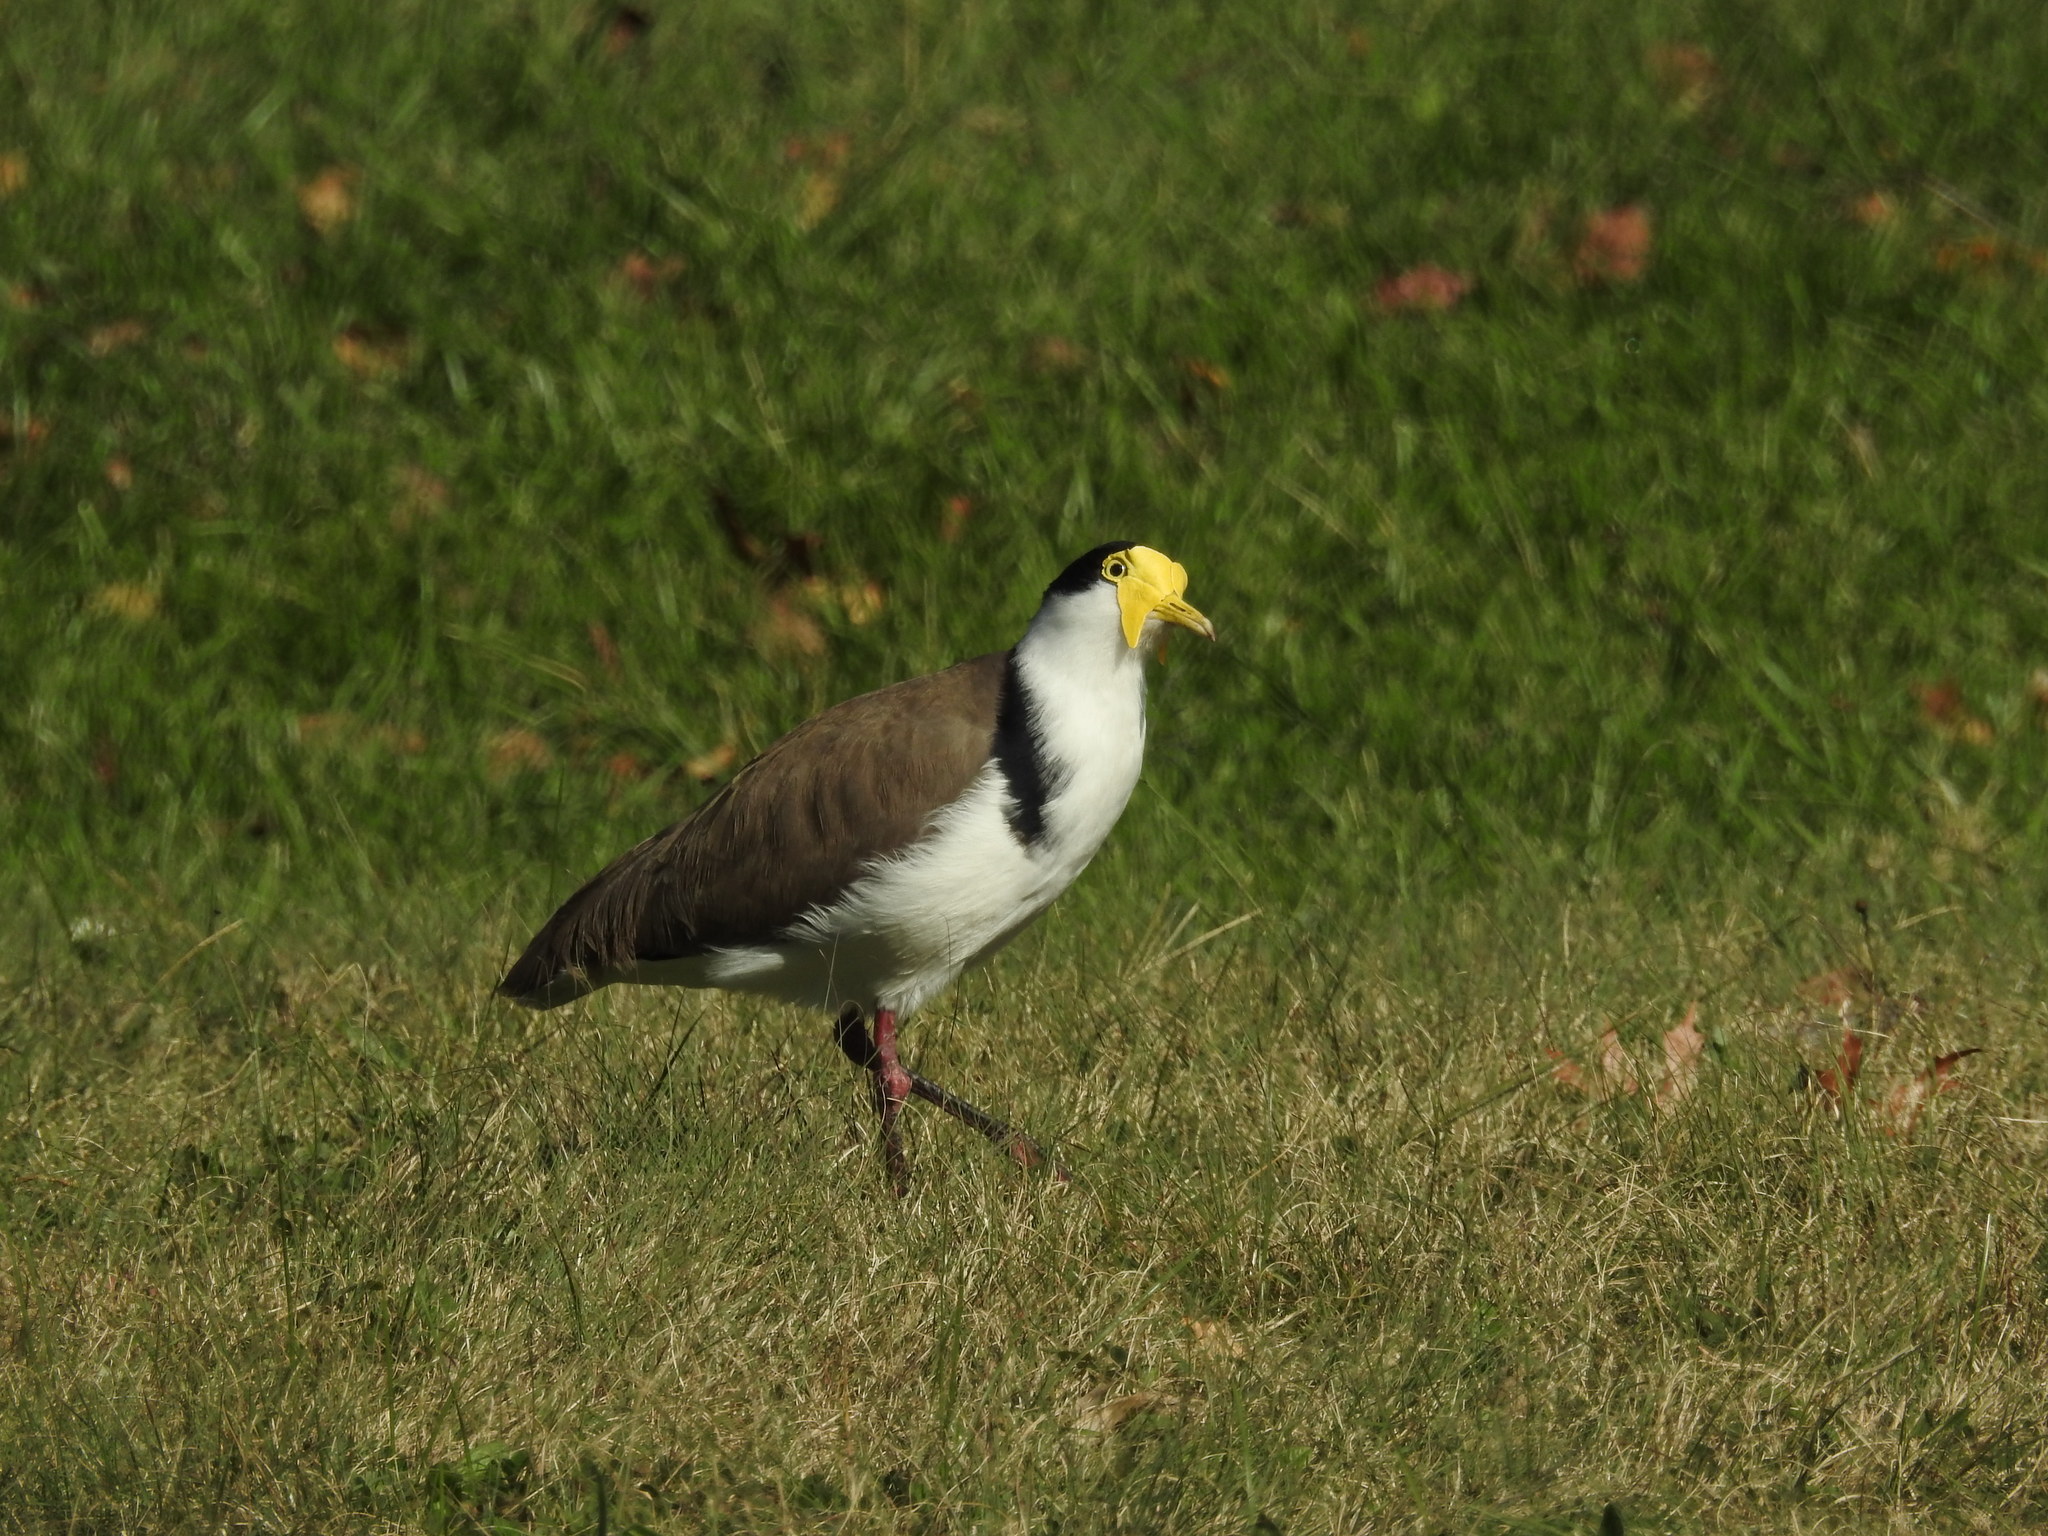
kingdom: Animalia
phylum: Chordata
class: Aves
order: Charadriiformes
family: Charadriidae
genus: Vanellus
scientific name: Vanellus miles
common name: Masked lapwing
